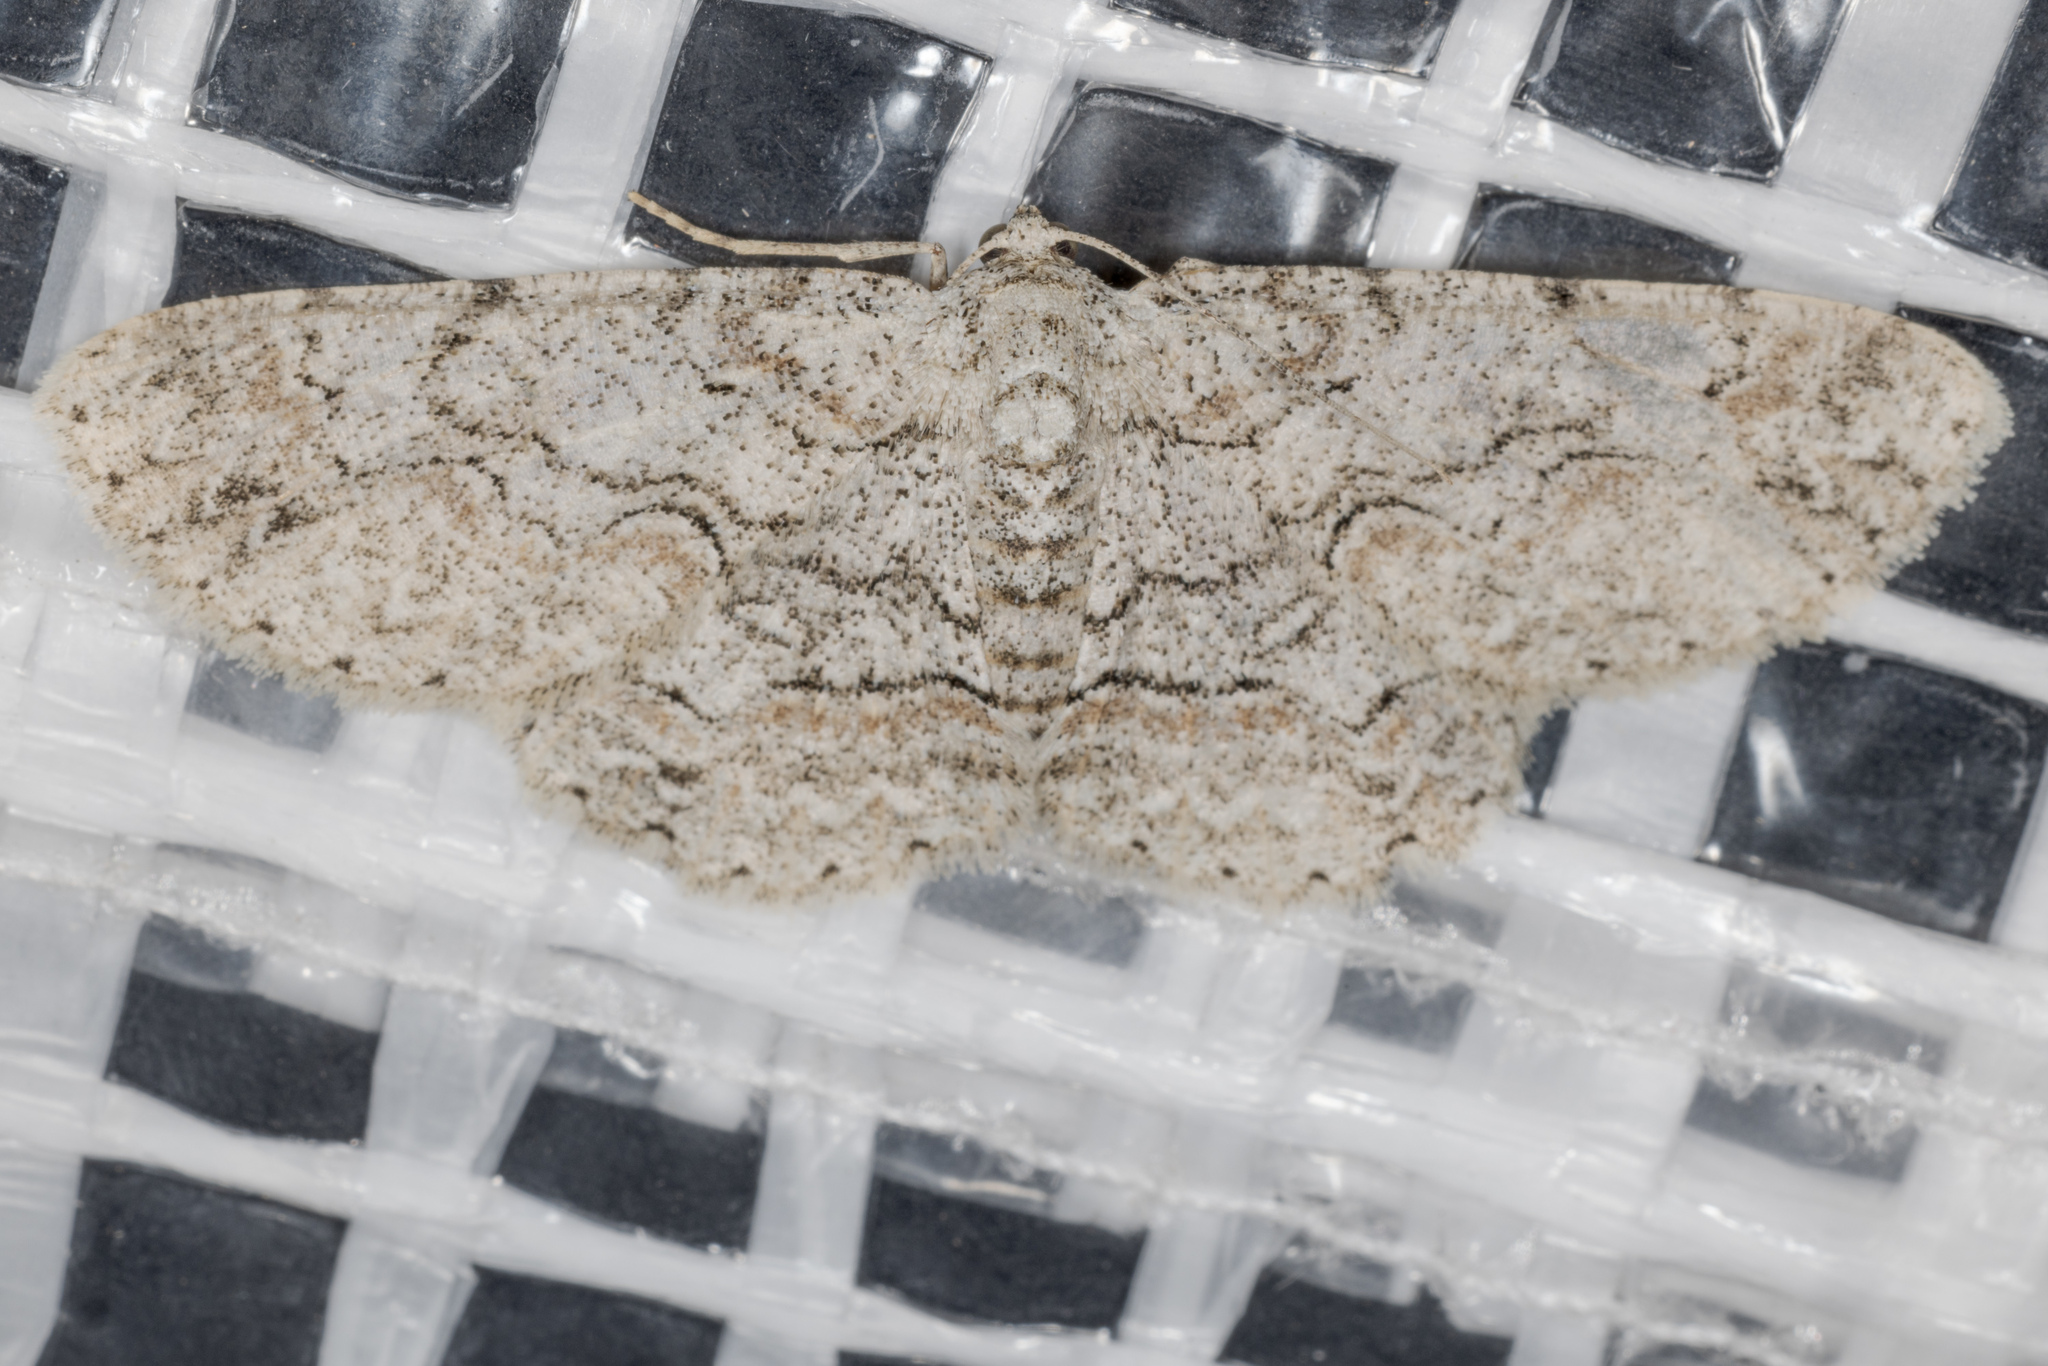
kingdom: Animalia
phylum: Arthropoda
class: Insecta
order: Lepidoptera
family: Geometridae
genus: Iridopsis
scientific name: Iridopsis defectaria
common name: Brown-shaded gray
